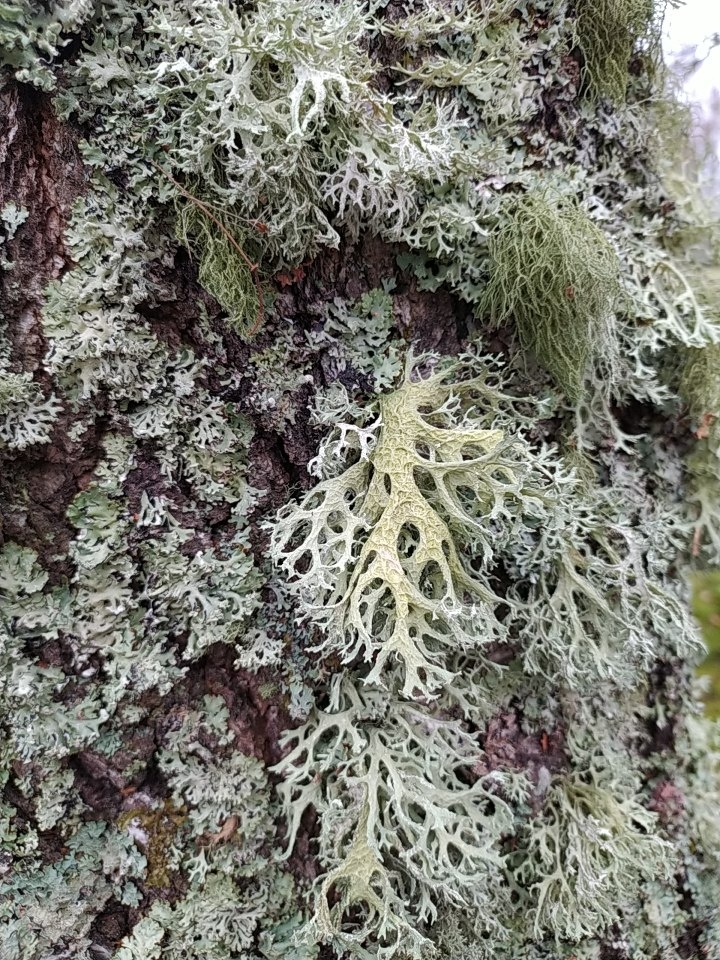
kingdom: Fungi
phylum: Ascomycota
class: Lecanoromycetes
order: Lecanorales
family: Parmeliaceae
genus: Evernia
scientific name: Evernia prunastri
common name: Oak moss
